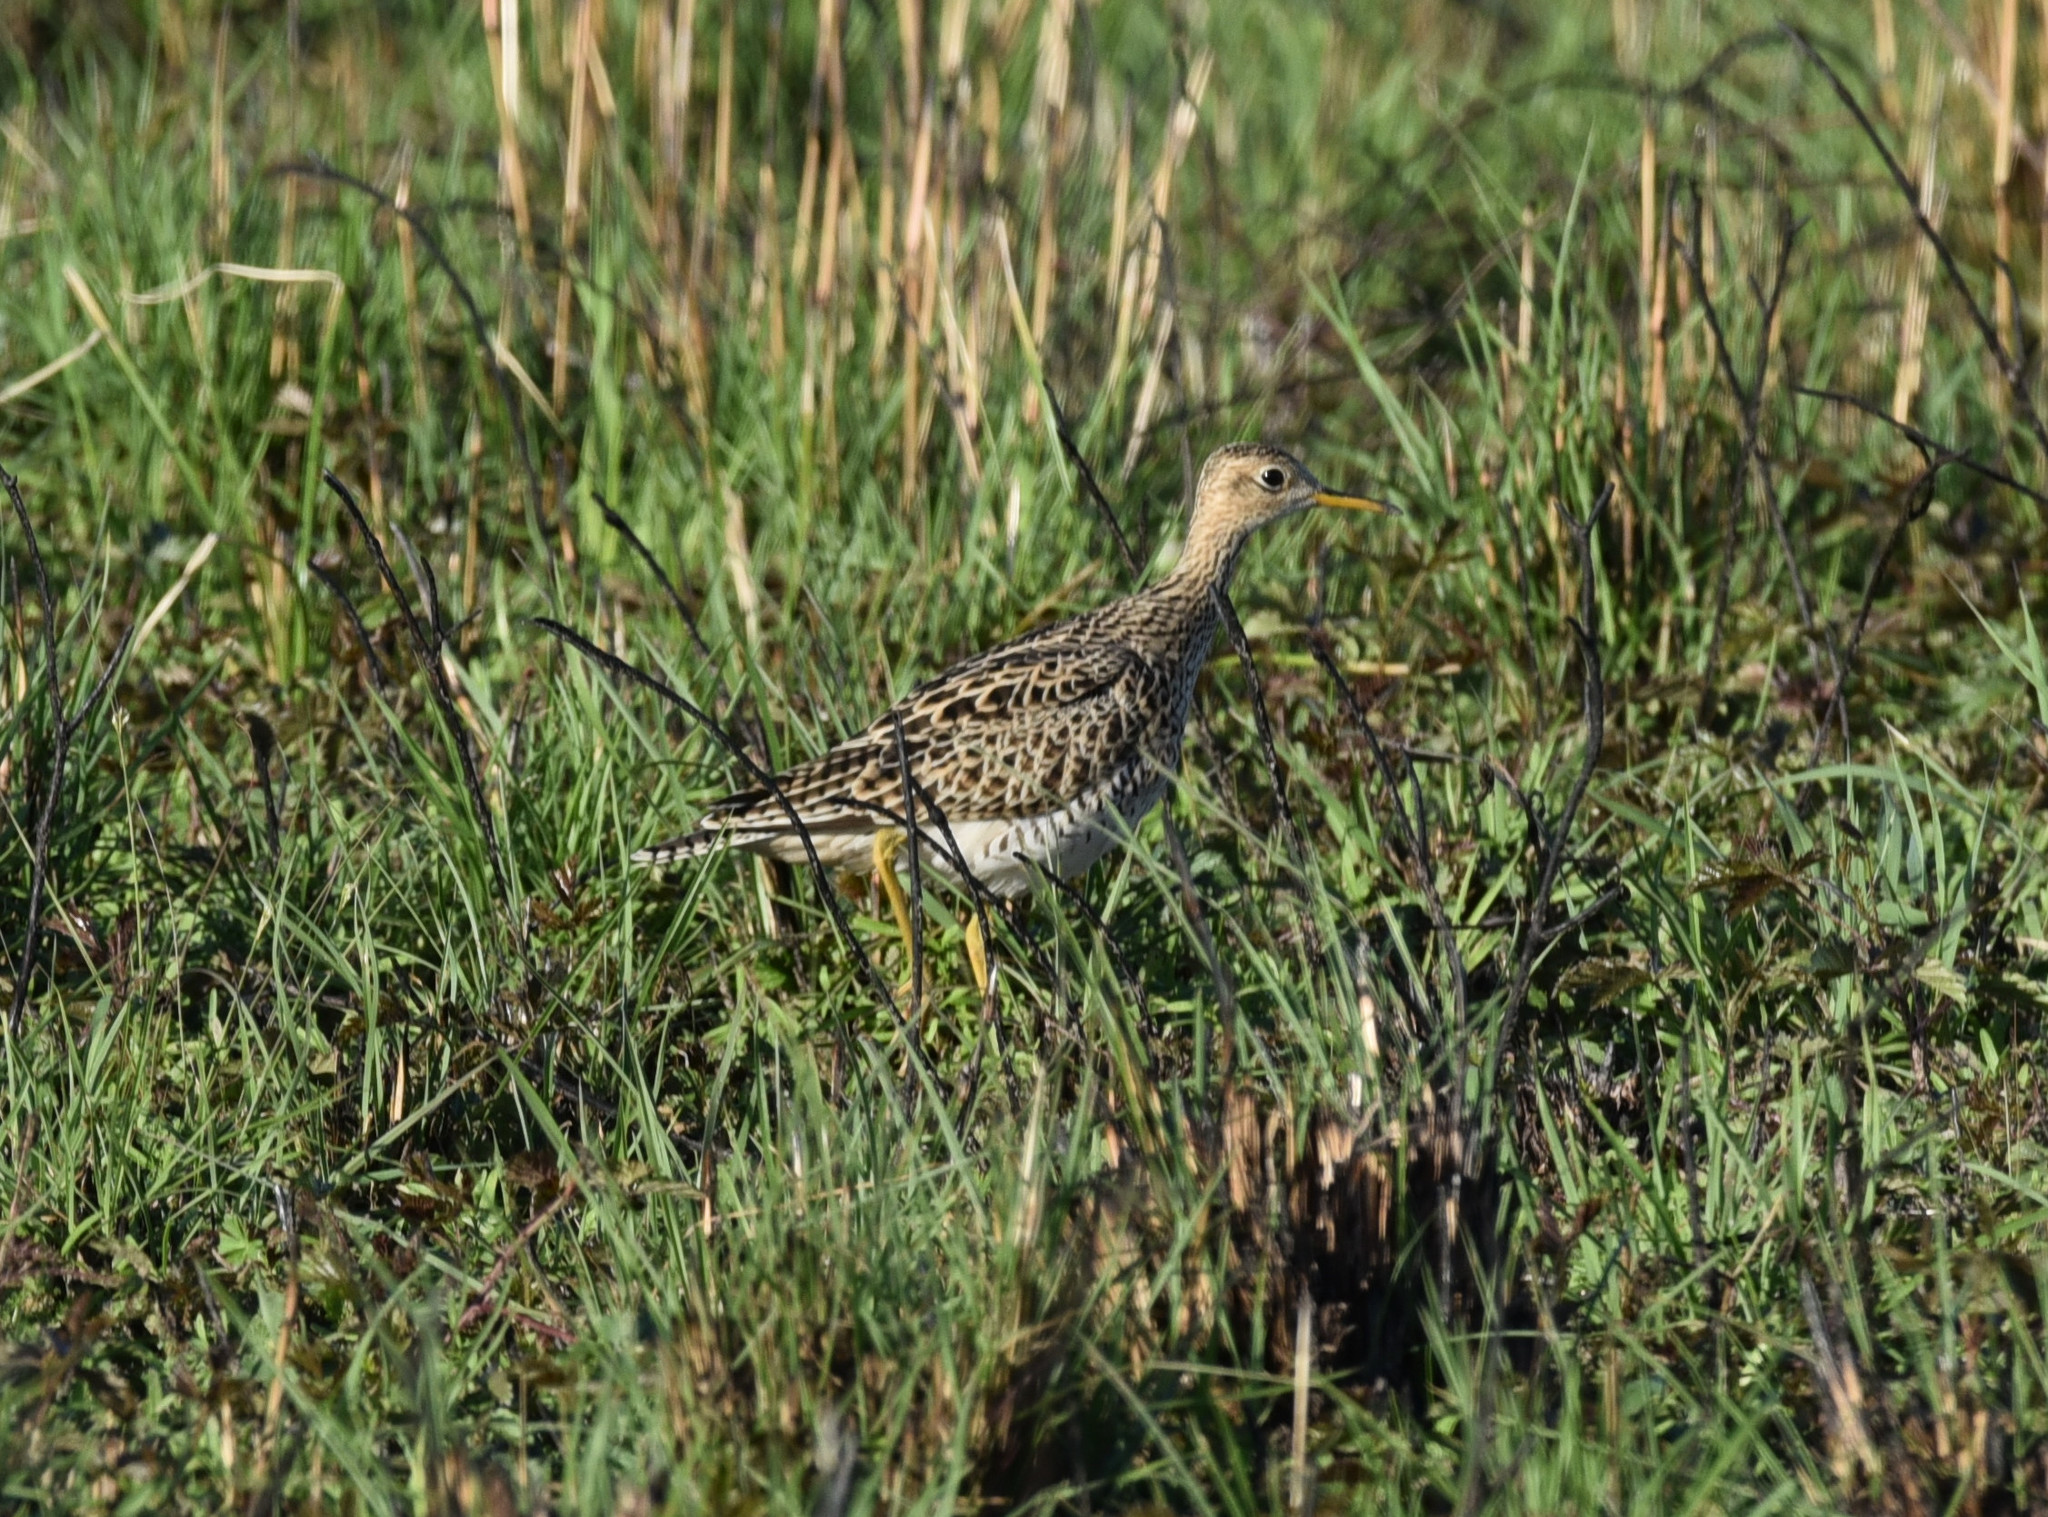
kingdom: Animalia
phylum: Chordata
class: Aves
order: Charadriiformes
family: Scolopacidae
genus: Bartramia
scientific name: Bartramia longicauda
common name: Upland sandpiper
